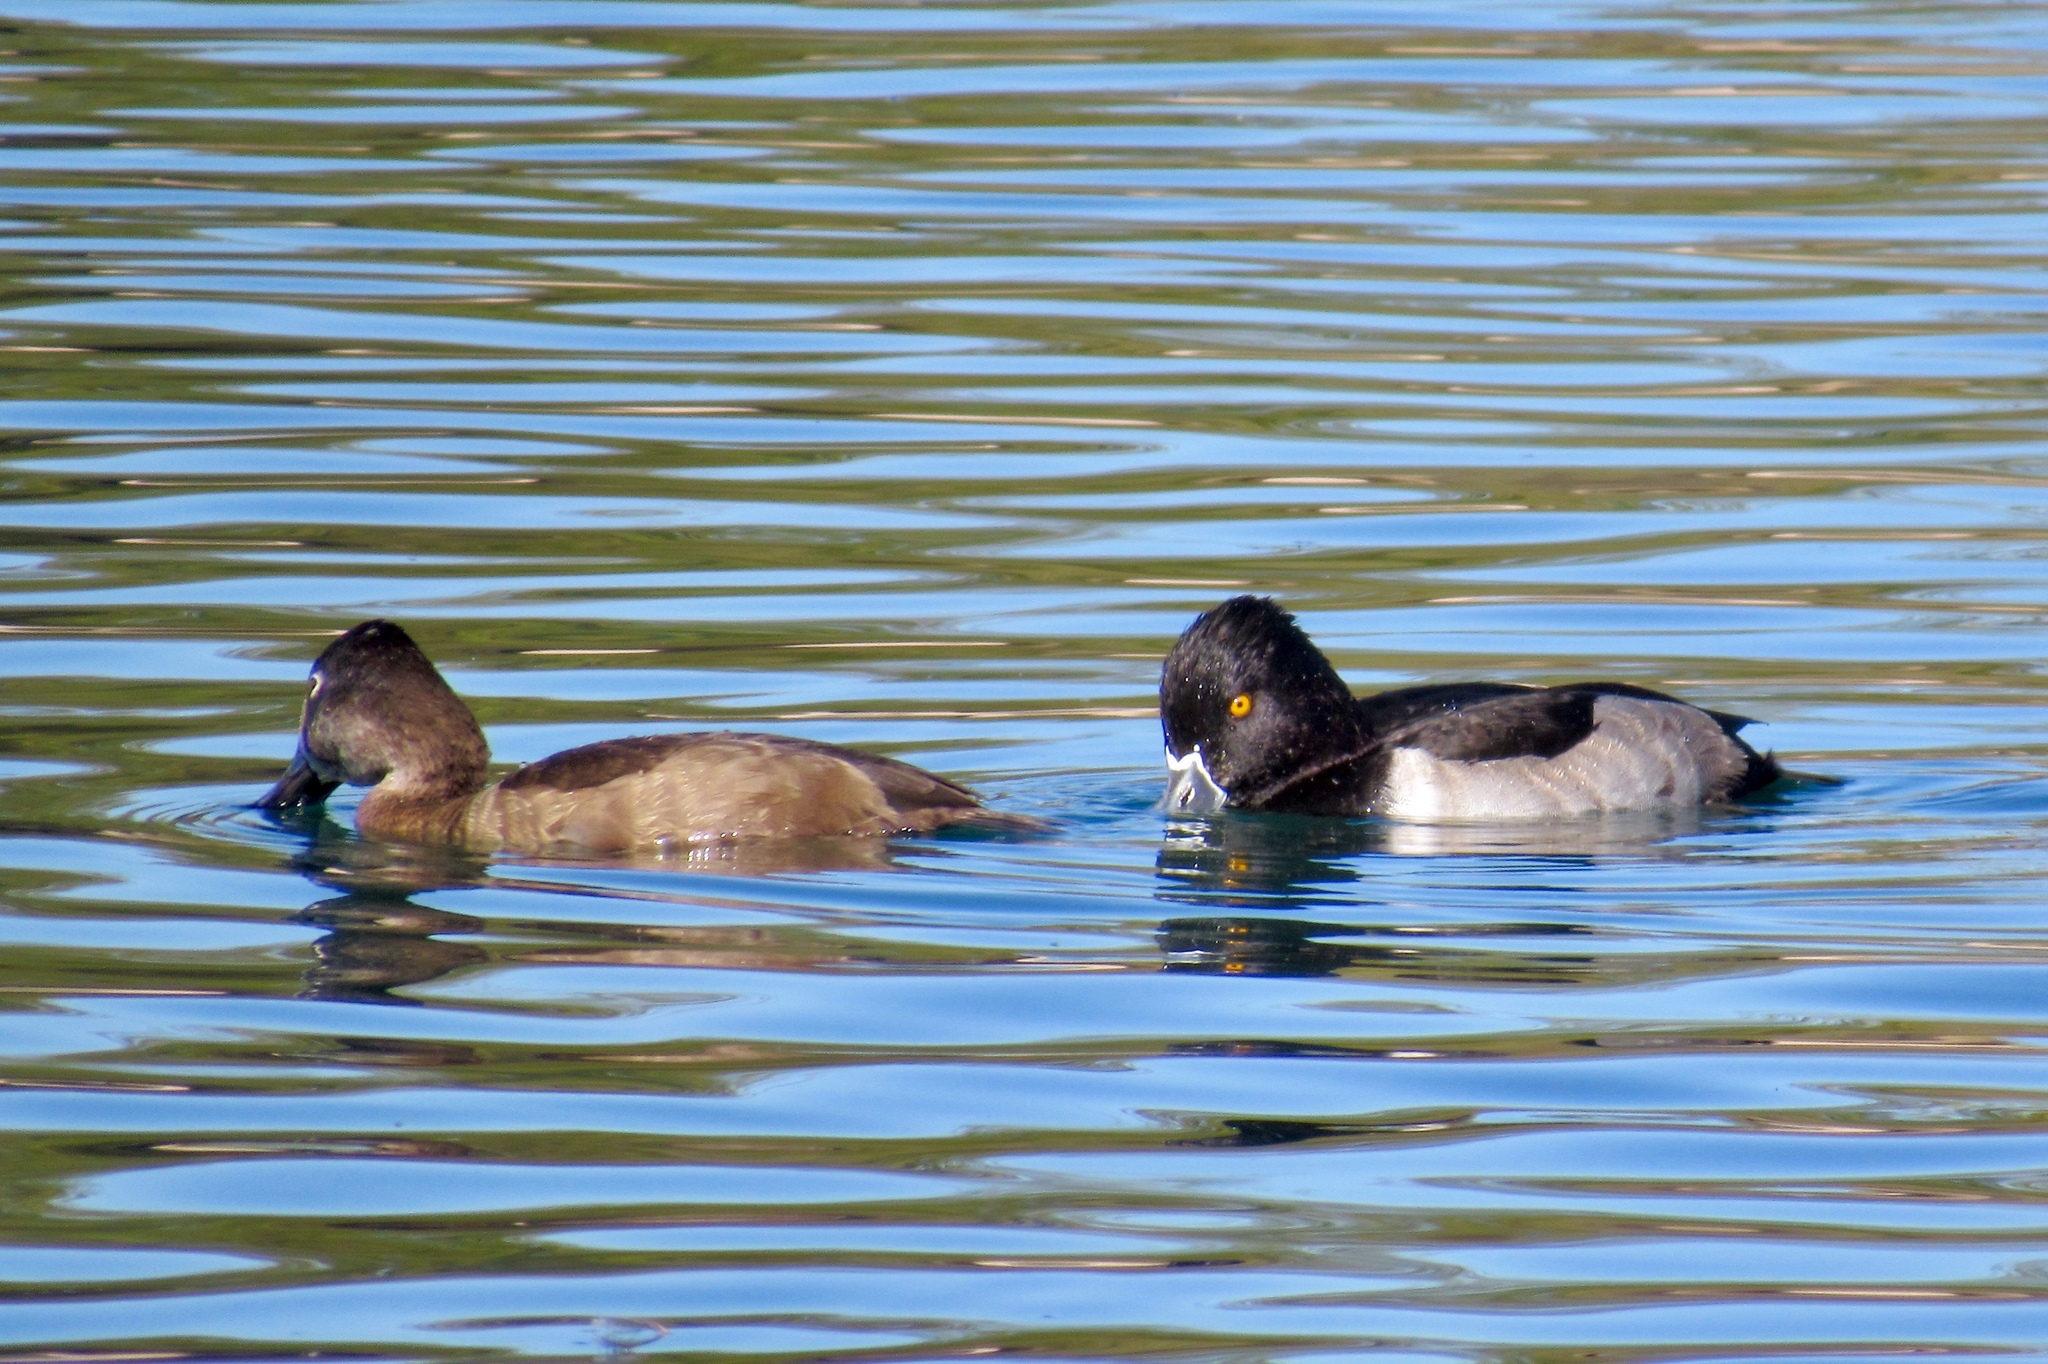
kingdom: Animalia
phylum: Chordata
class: Aves
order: Anseriformes
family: Anatidae
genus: Aythya
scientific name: Aythya collaris
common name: Ring-necked duck
